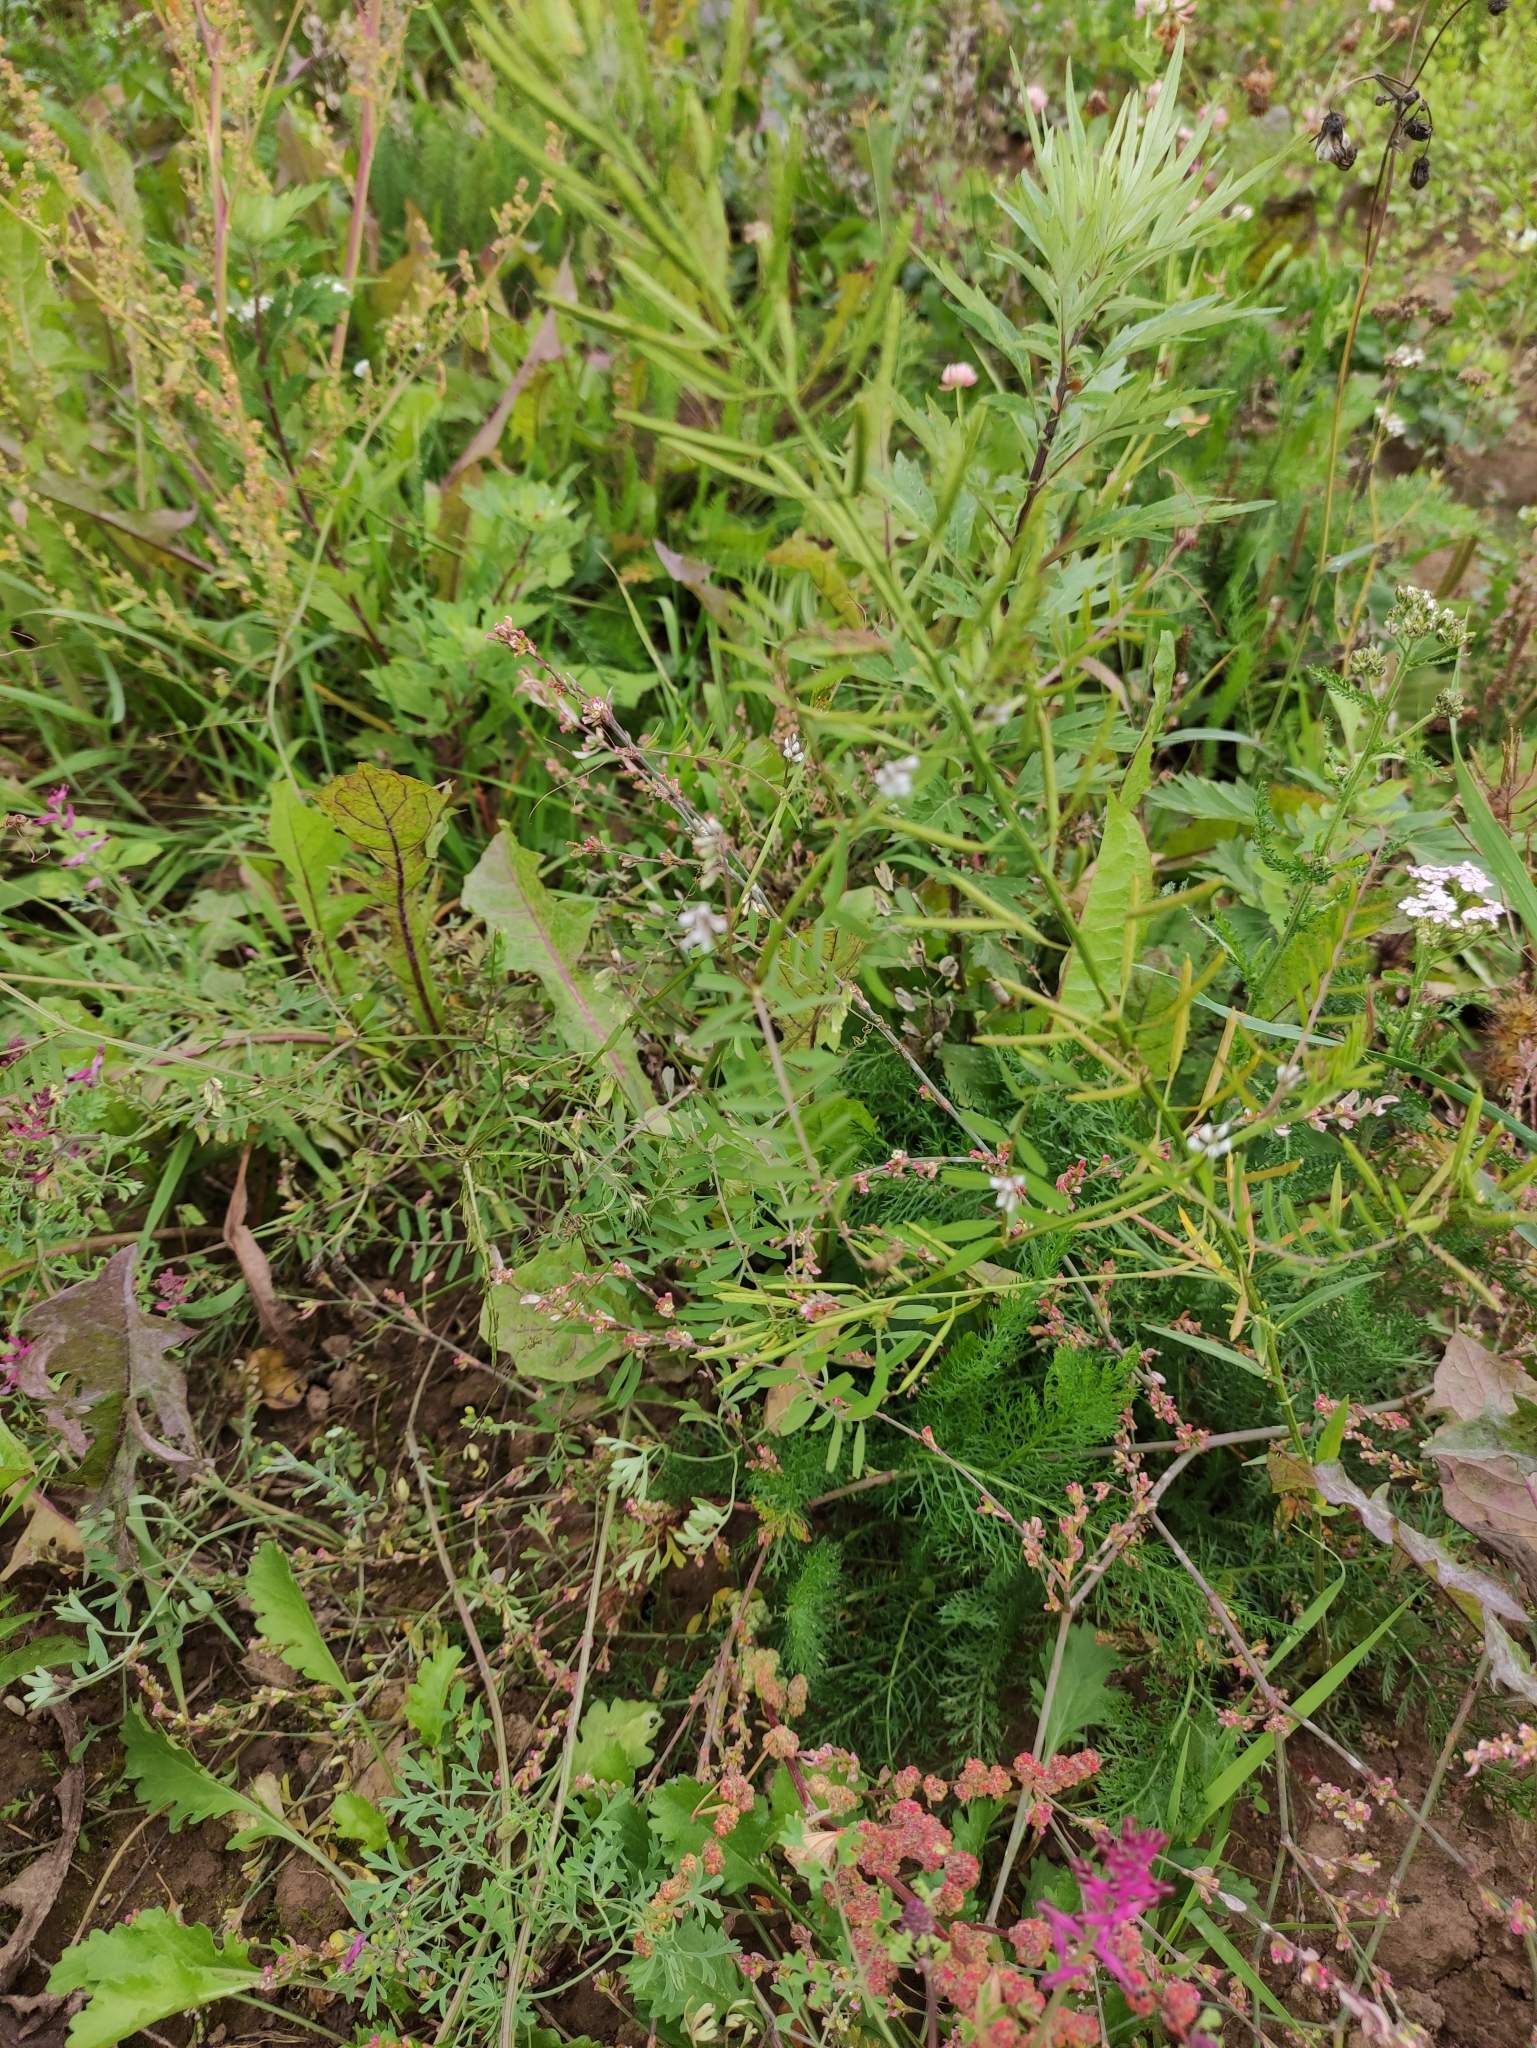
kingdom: Plantae
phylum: Tracheophyta
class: Magnoliopsida
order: Fabales
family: Fabaceae
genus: Vicia
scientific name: Vicia hirsuta
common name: Tiny vetch
